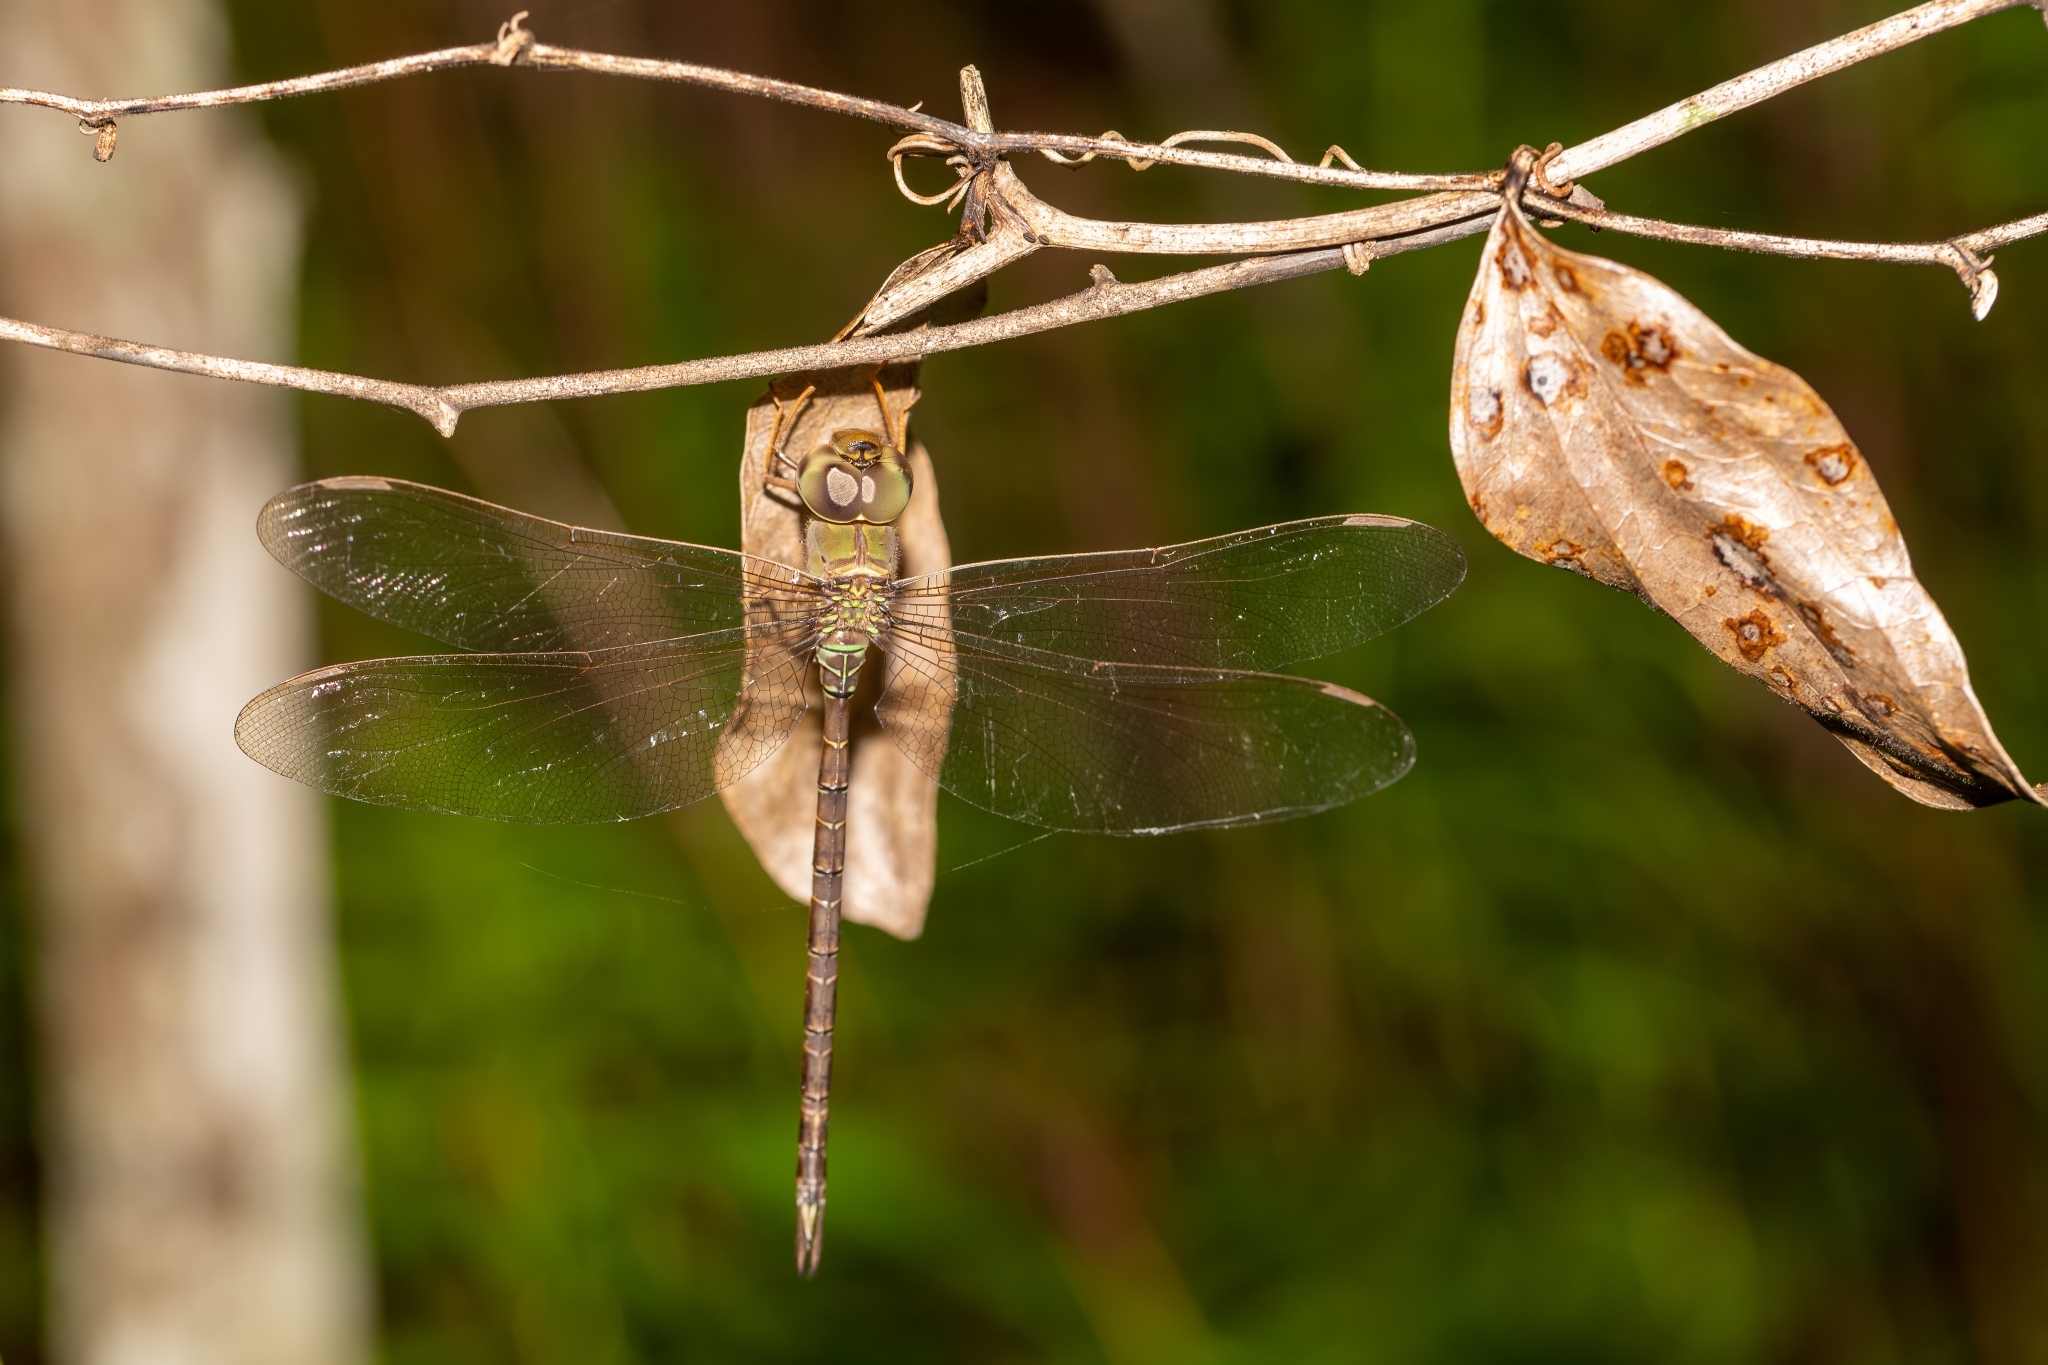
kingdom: Animalia
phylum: Arthropoda
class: Insecta
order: Odonata
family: Aeshnidae
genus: Gynacantha
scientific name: Gynacantha nervosa
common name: Twilight darner
